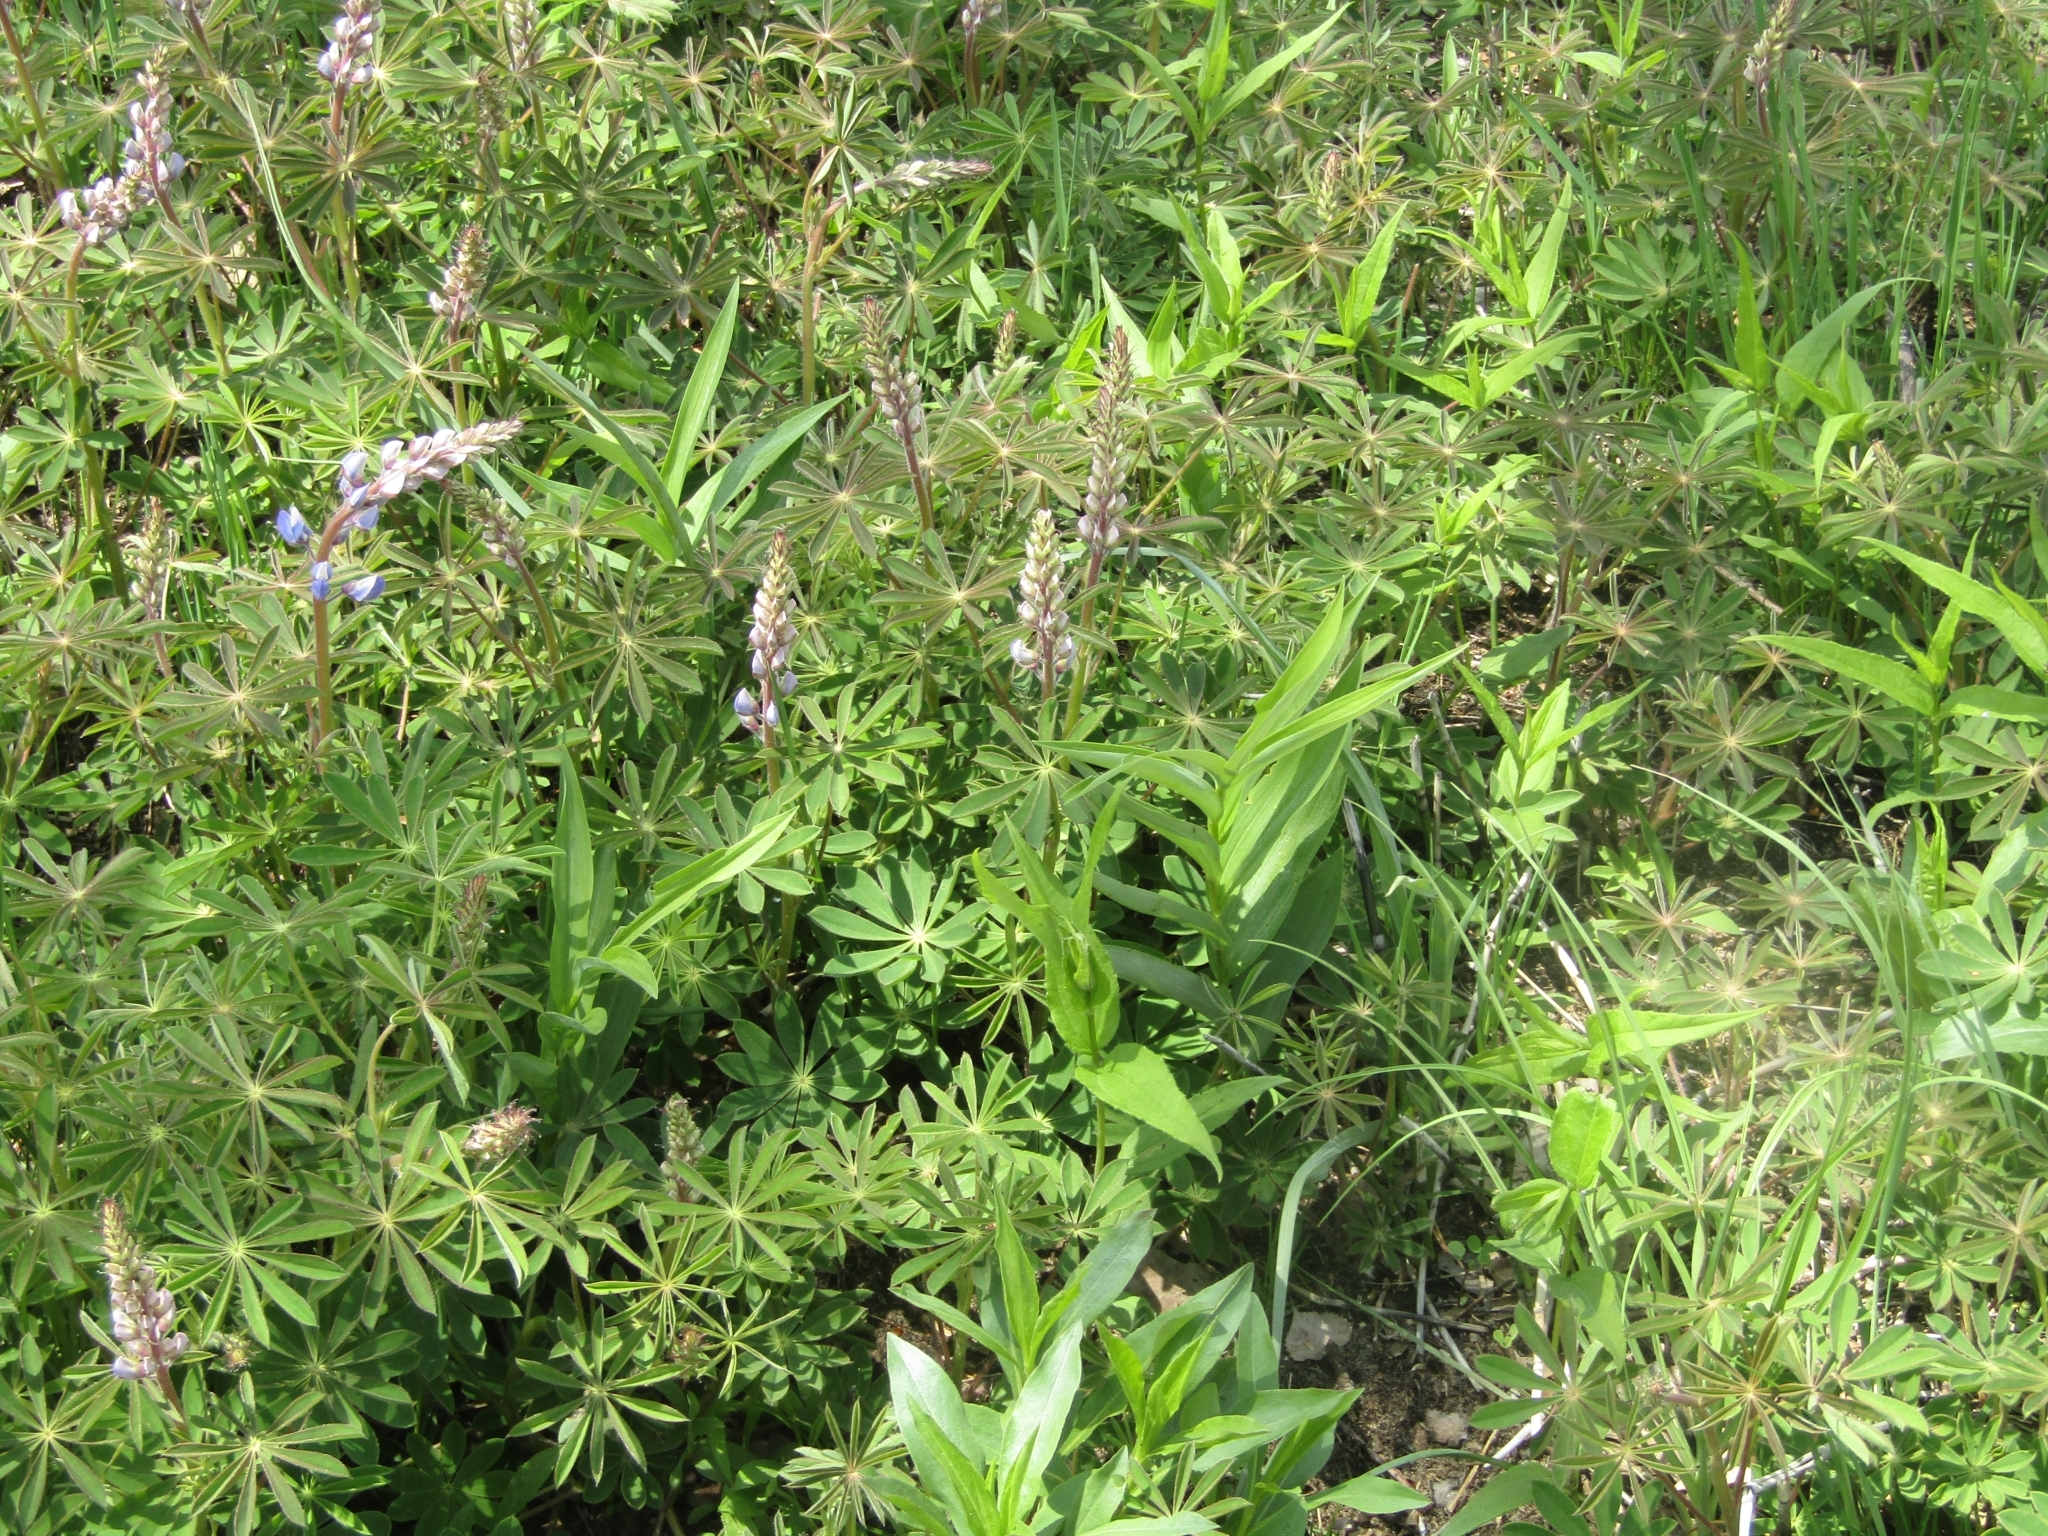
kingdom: Plantae
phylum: Tracheophyta
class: Magnoliopsida
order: Fabales
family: Fabaceae
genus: Lupinus
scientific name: Lupinus perennis
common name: Sundial lupine
